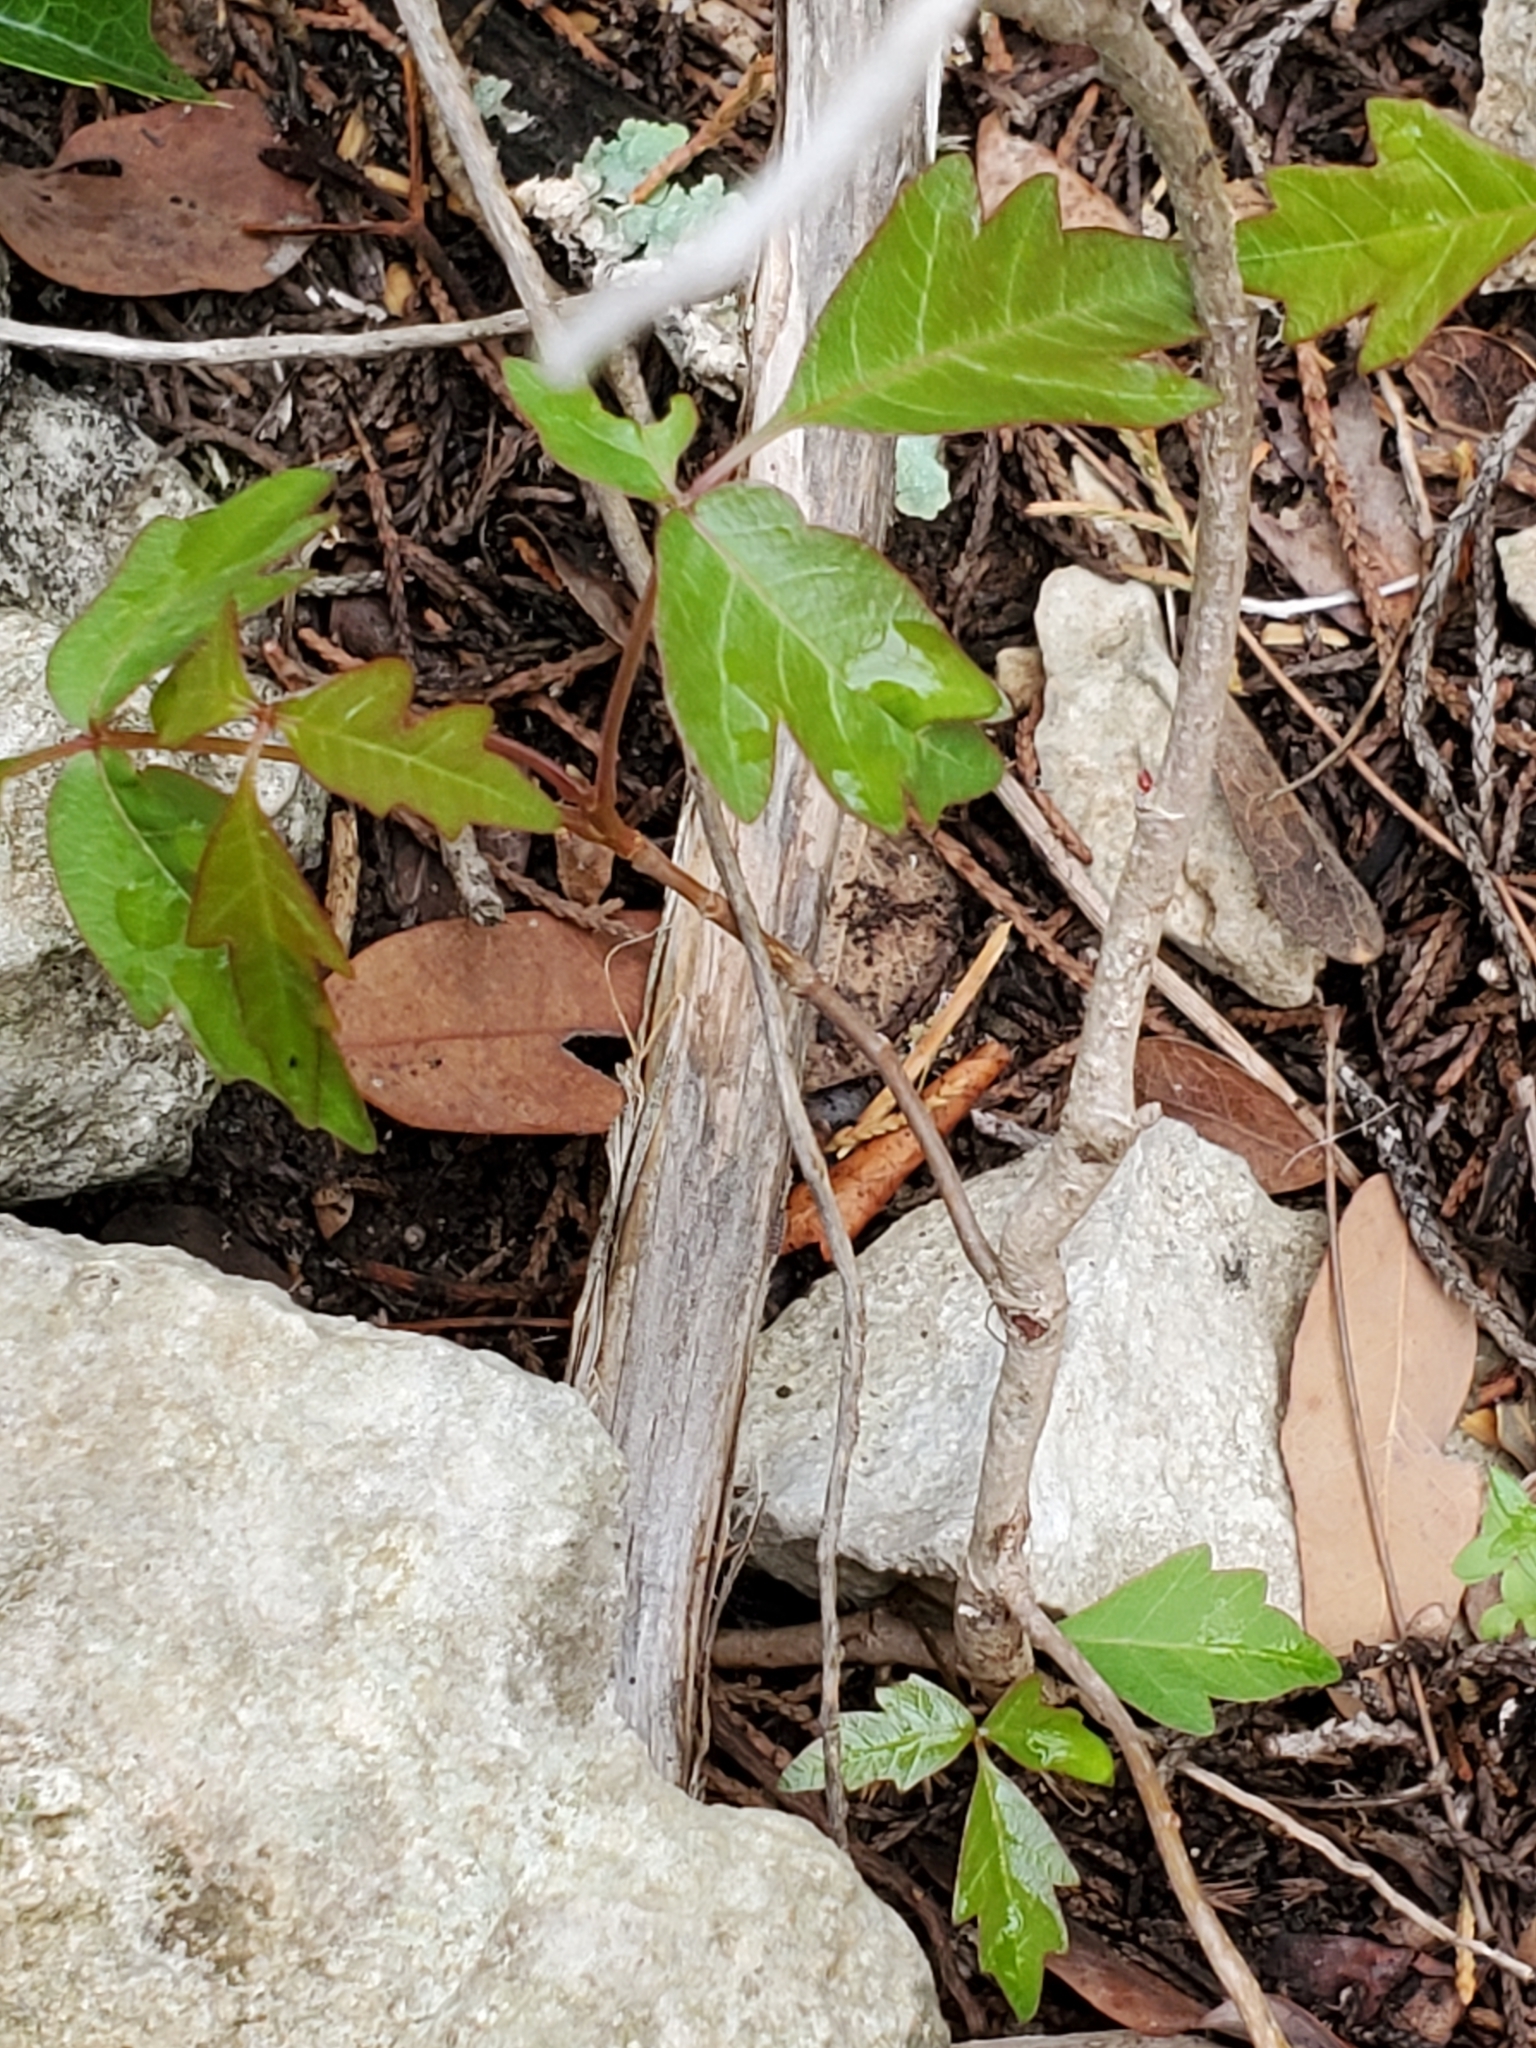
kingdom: Plantae
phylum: Tracheophyta
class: Magnoliopsida
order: Sapindales
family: Anacardiaceae
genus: Toxicodendron
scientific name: Toxicodendron radicans
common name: Poison ivy
